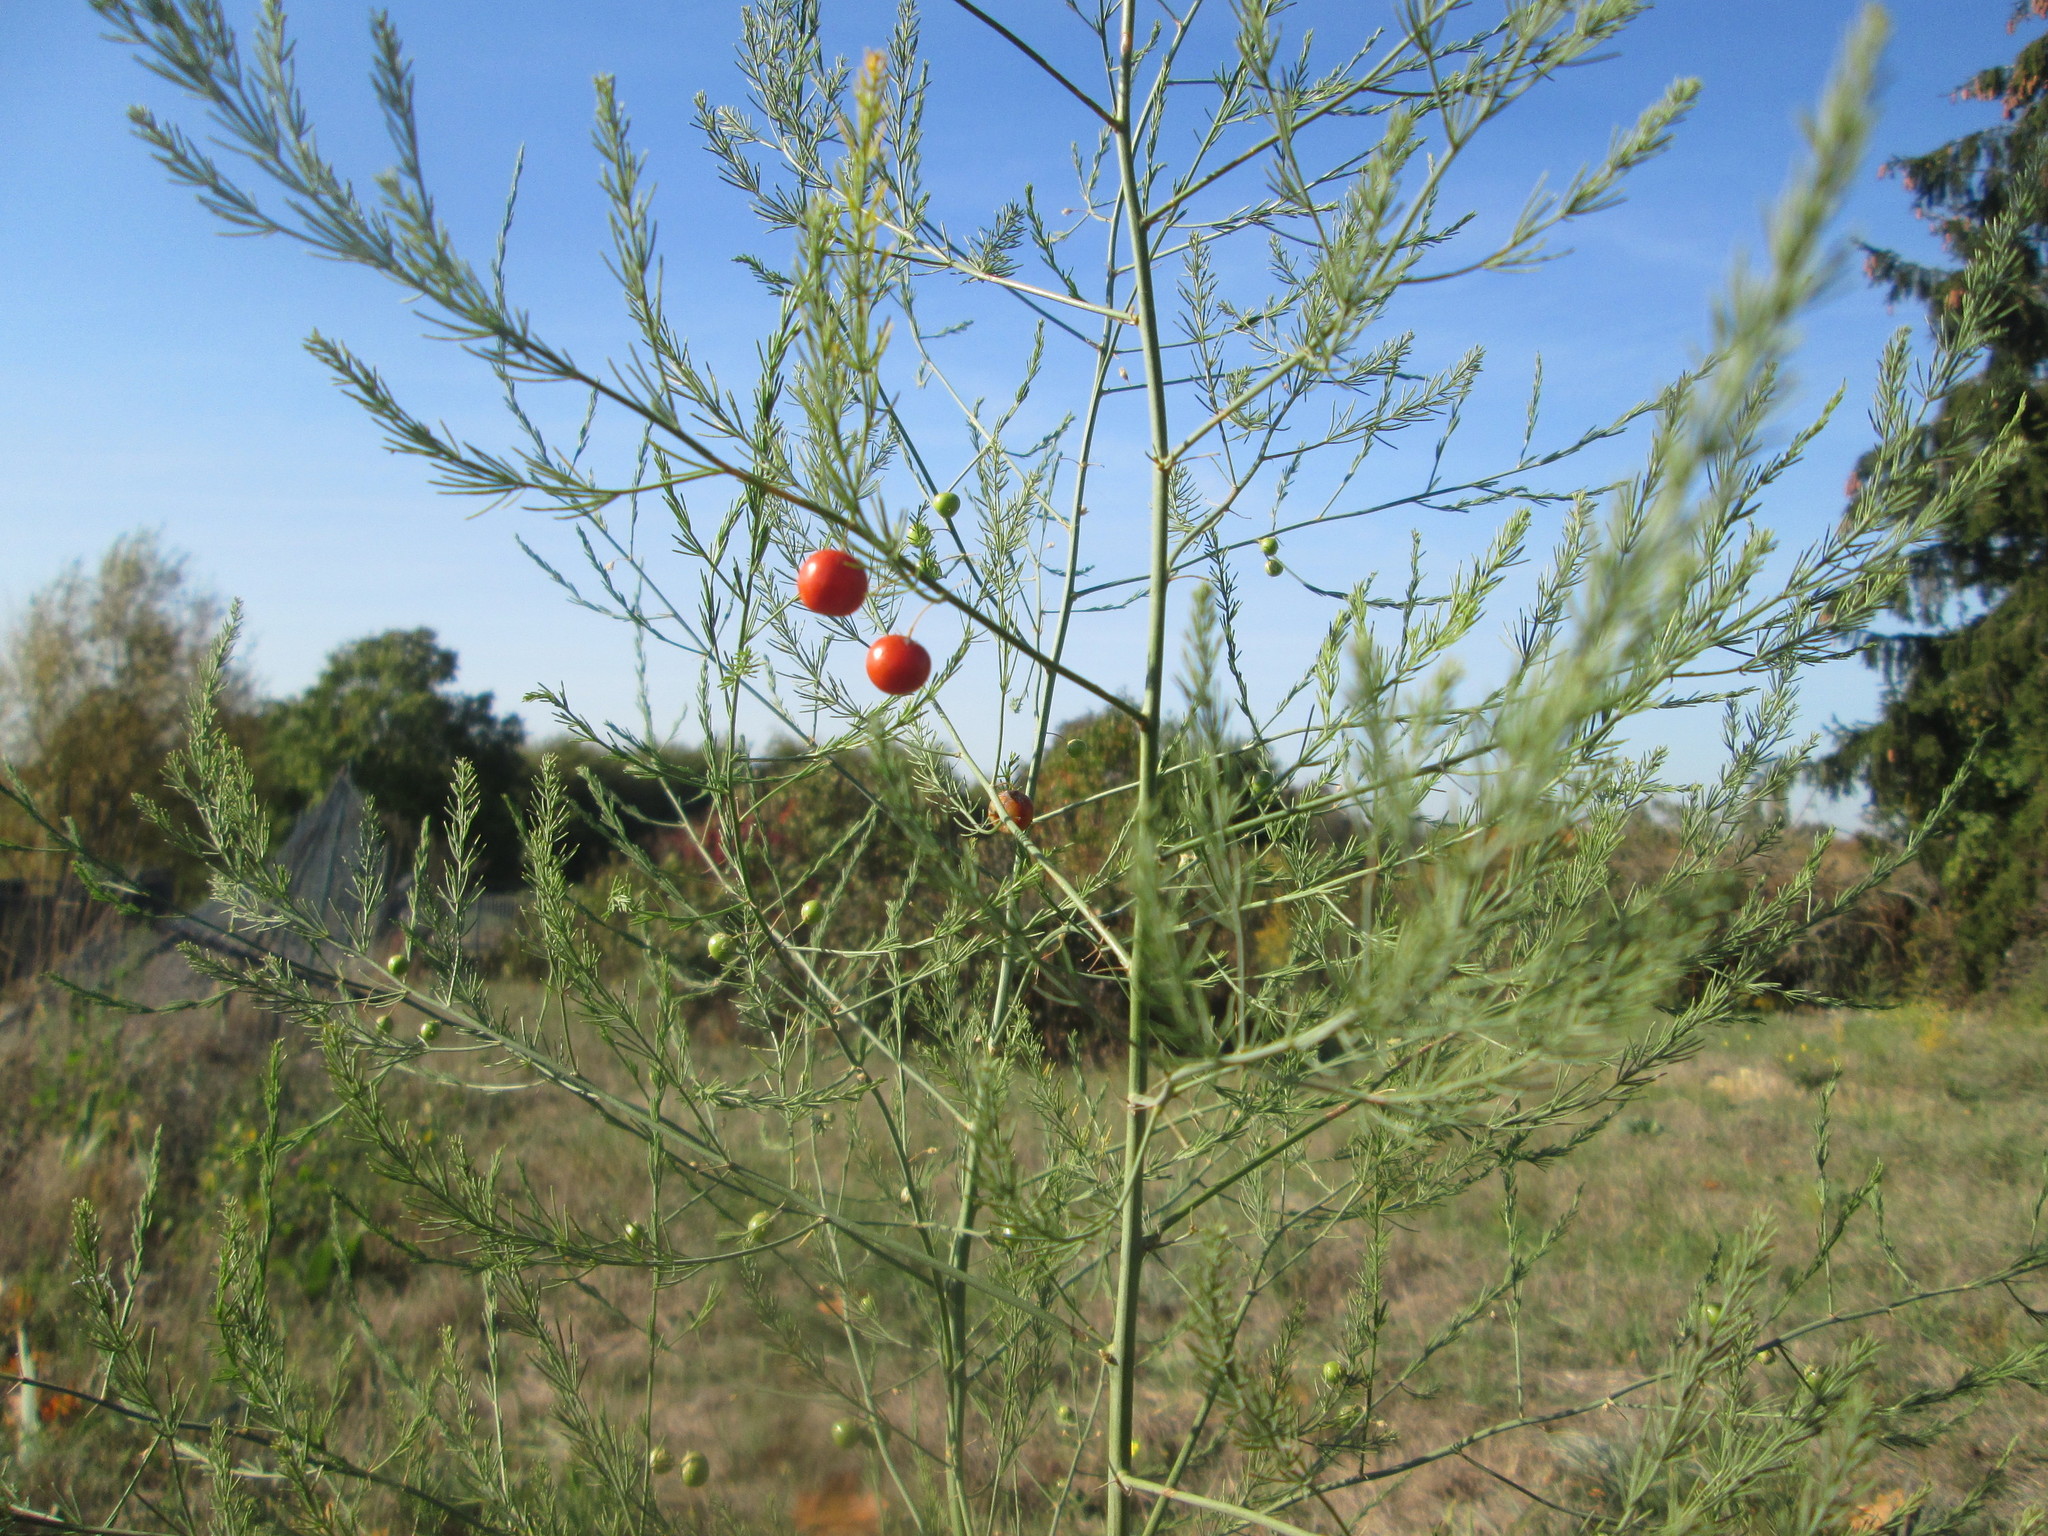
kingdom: Plantae
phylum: Tracheophyta
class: Liliopsida
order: Asparagales
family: Asparagaceae
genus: Asparagus
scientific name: Asparagus officinalis
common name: Garden asparagus
